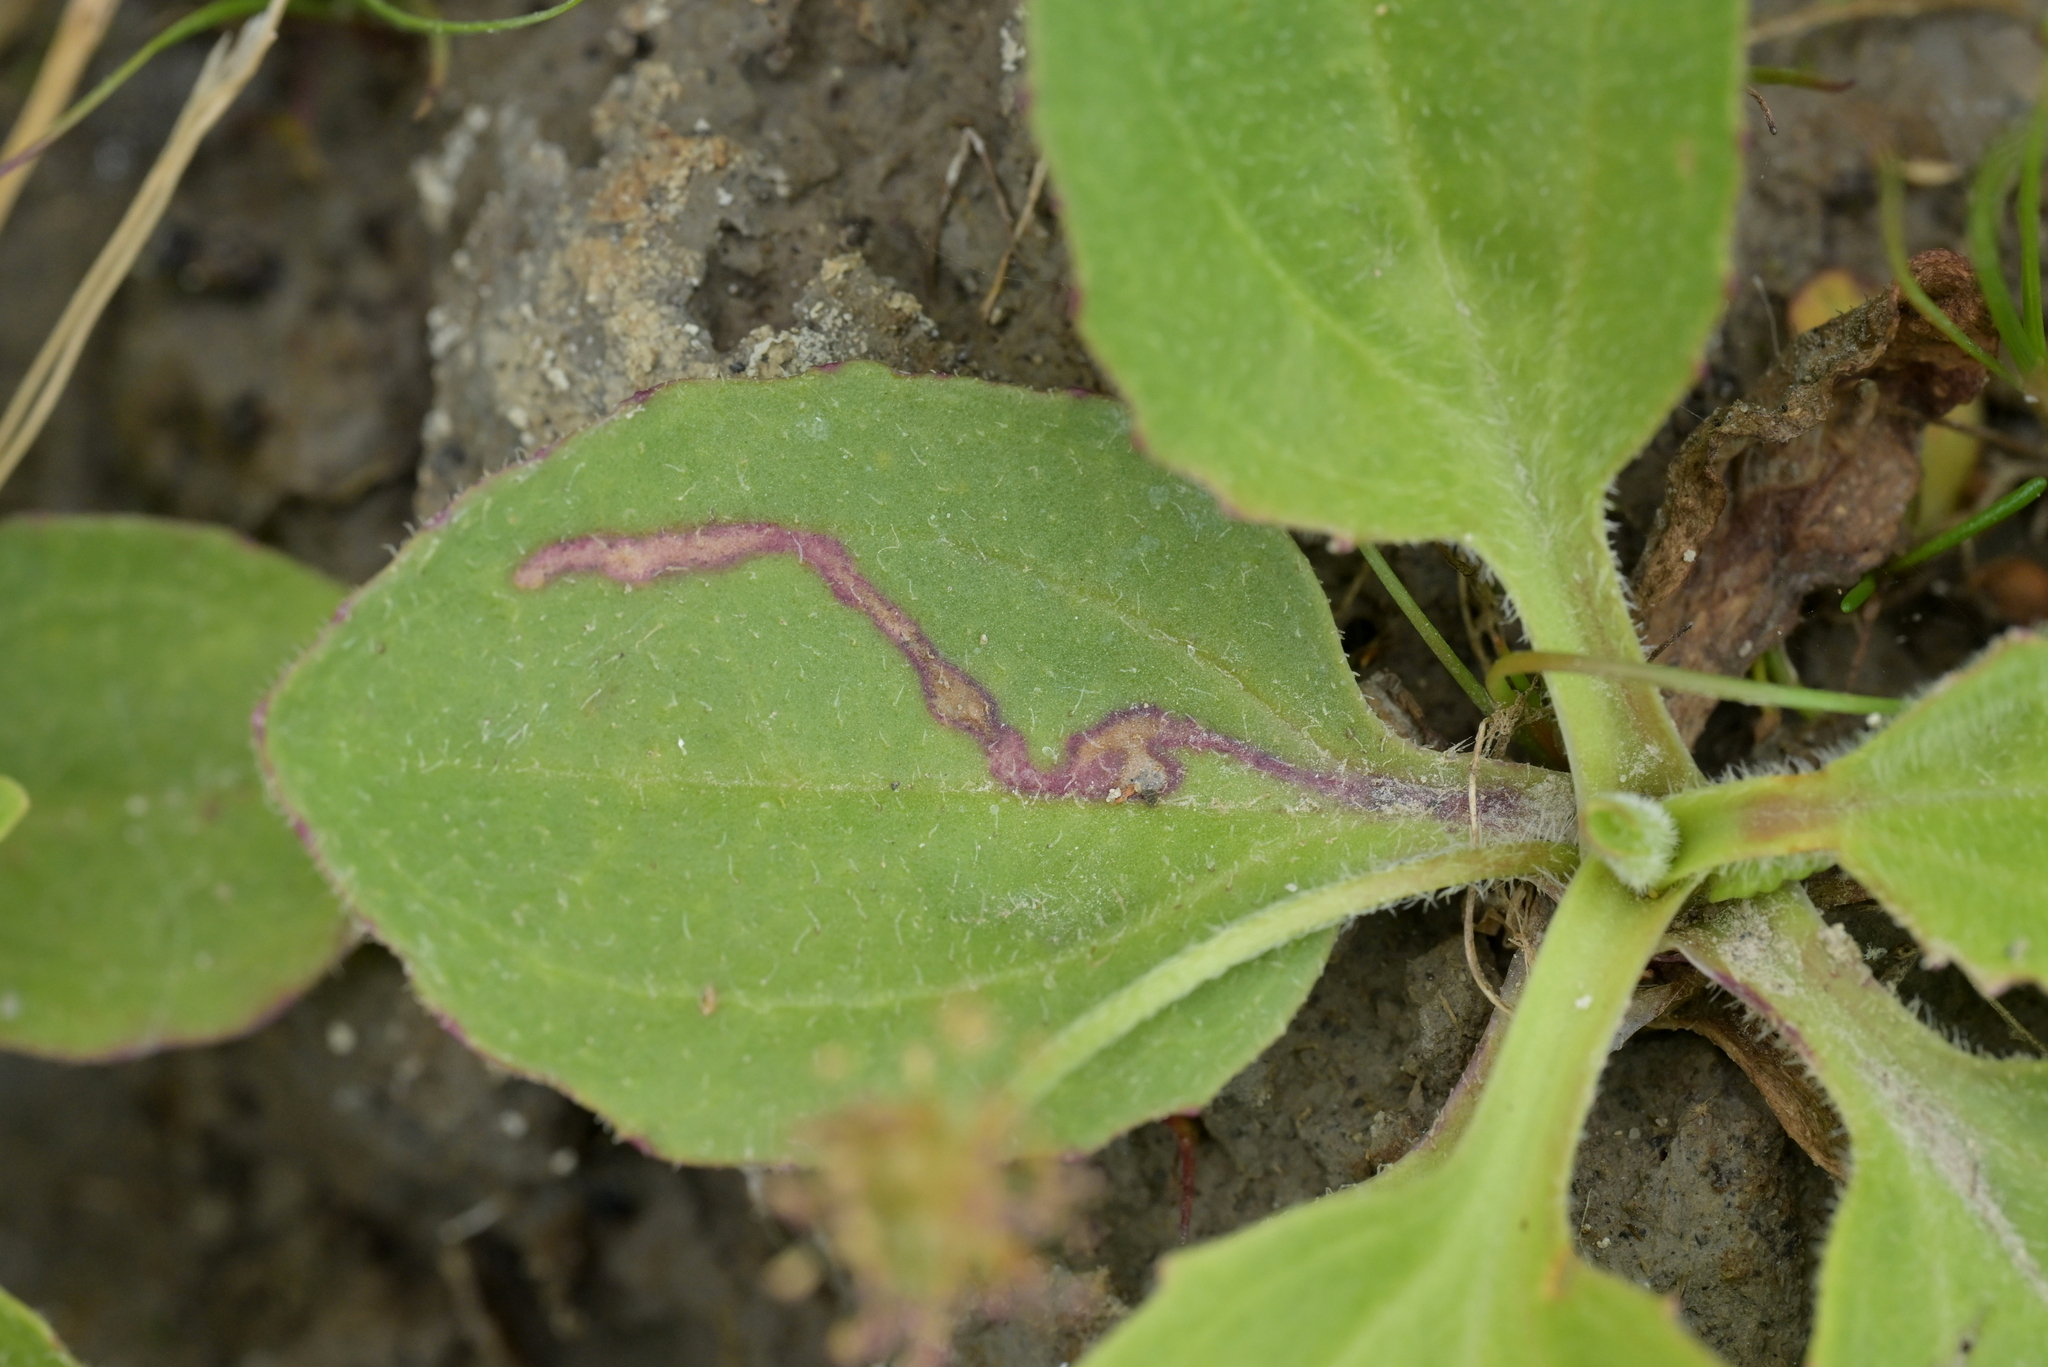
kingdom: Animalia
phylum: Arthropoda
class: Insecta
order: Diptera
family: Agromyzidae
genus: Phytomyza
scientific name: Phytomyza plantaginis
